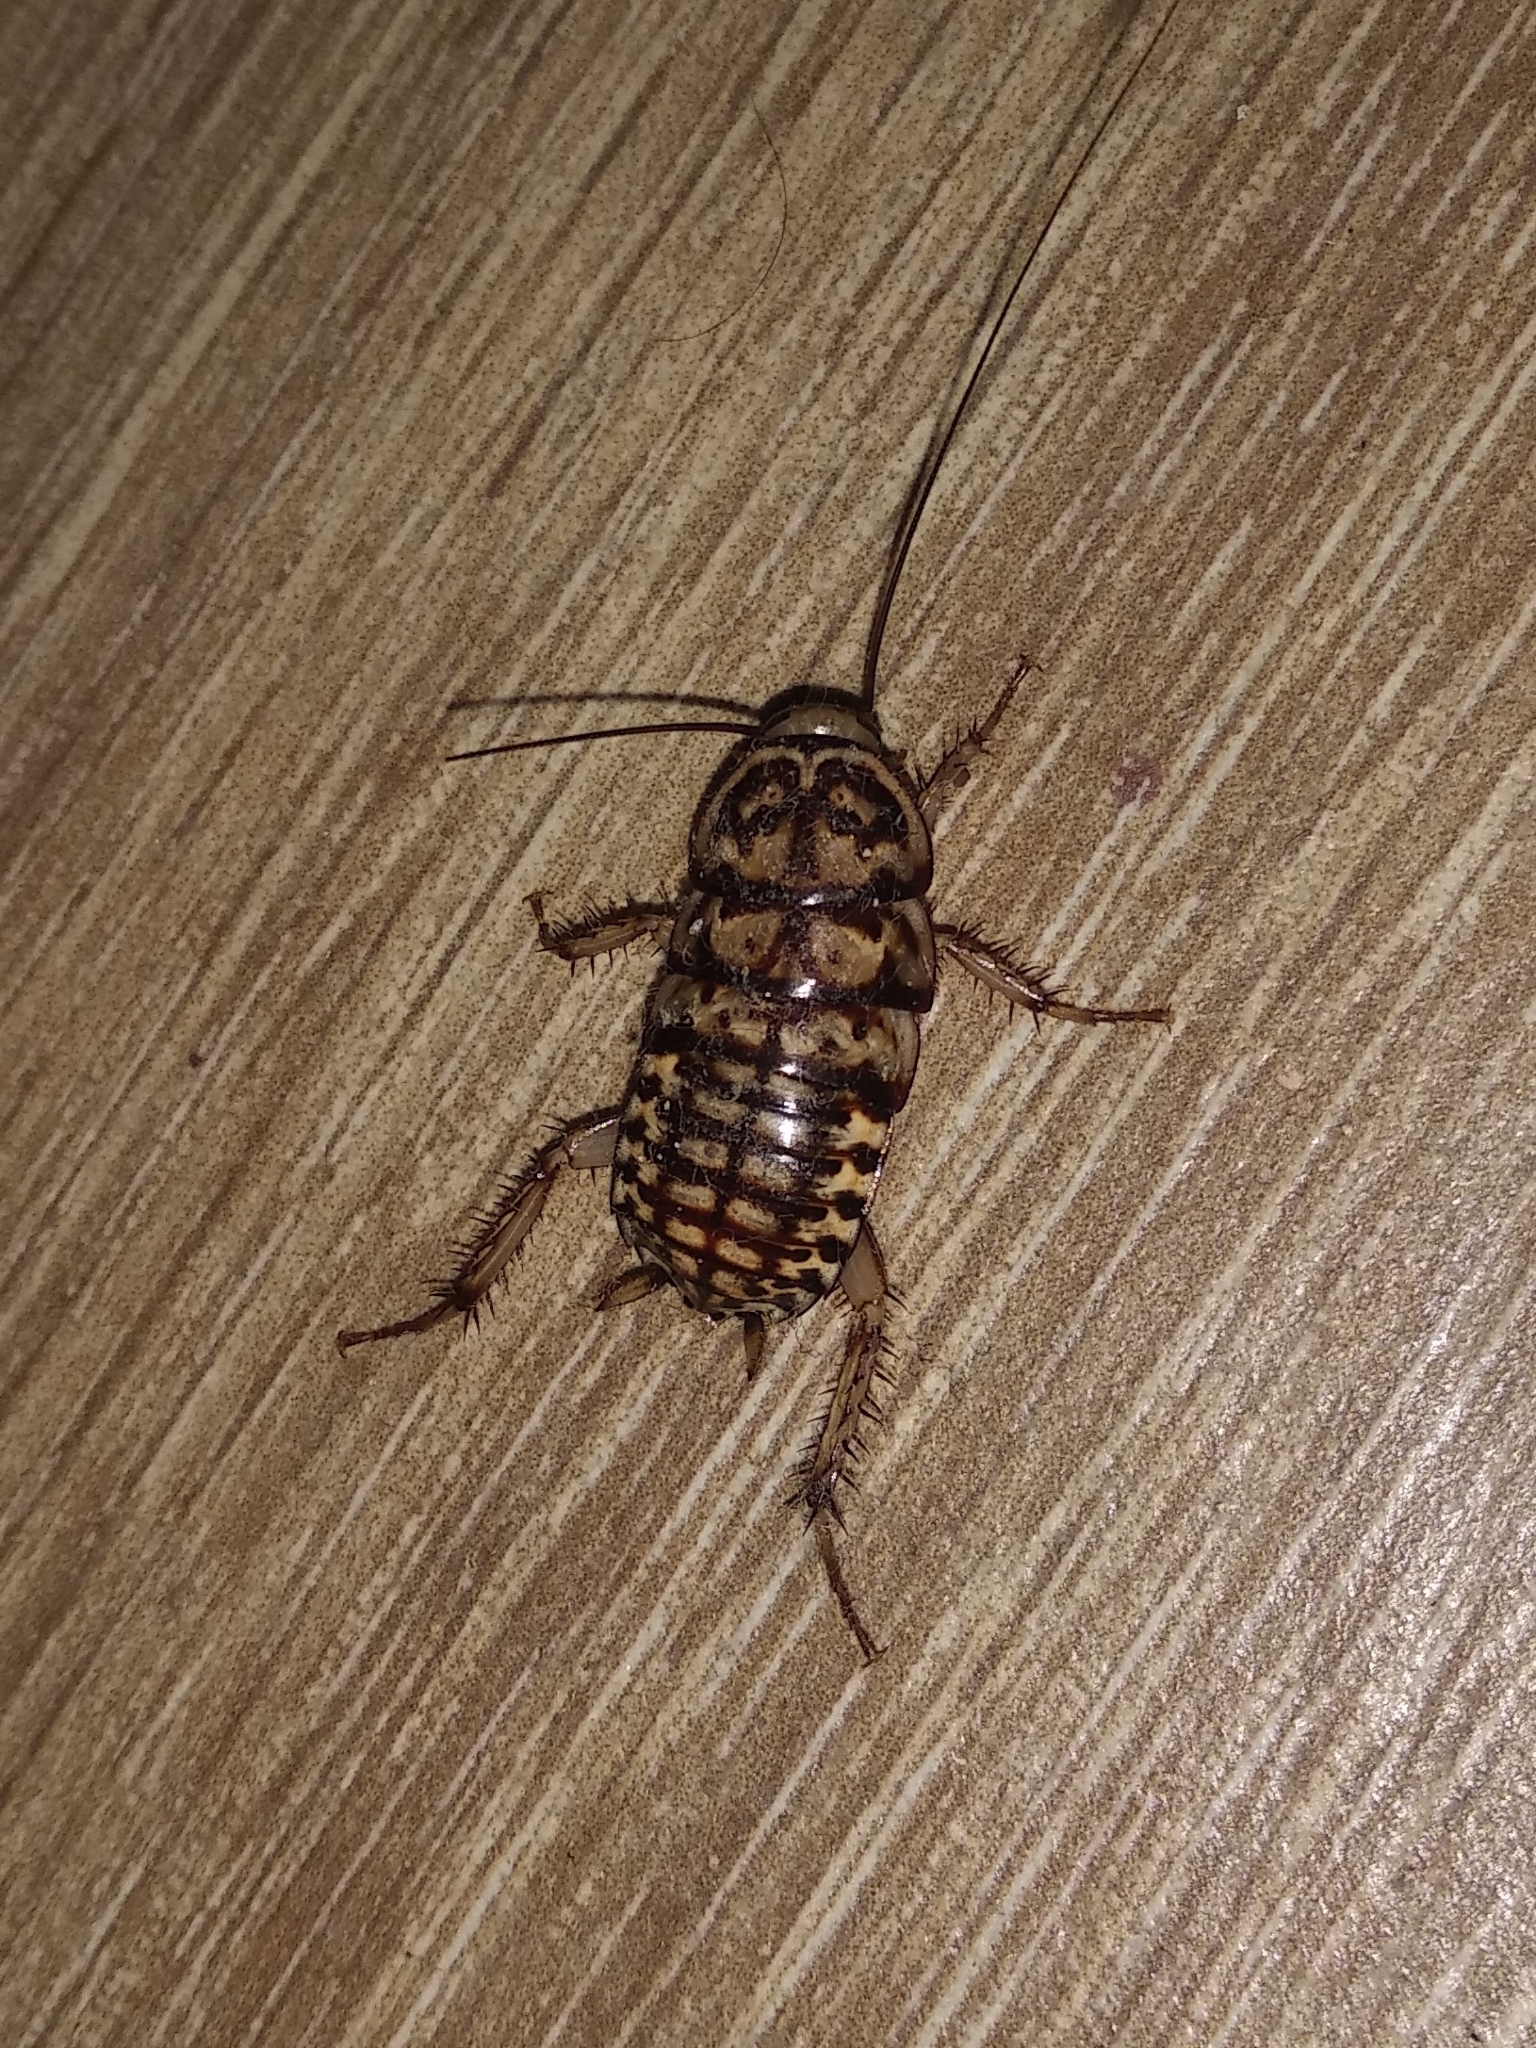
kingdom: Animalia
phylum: Arthropoda
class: Insecta
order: Blattodea
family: Blattidae
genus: Neostylopyga
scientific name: Neostylopyga rhombifolia
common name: Harlequin cockroach
